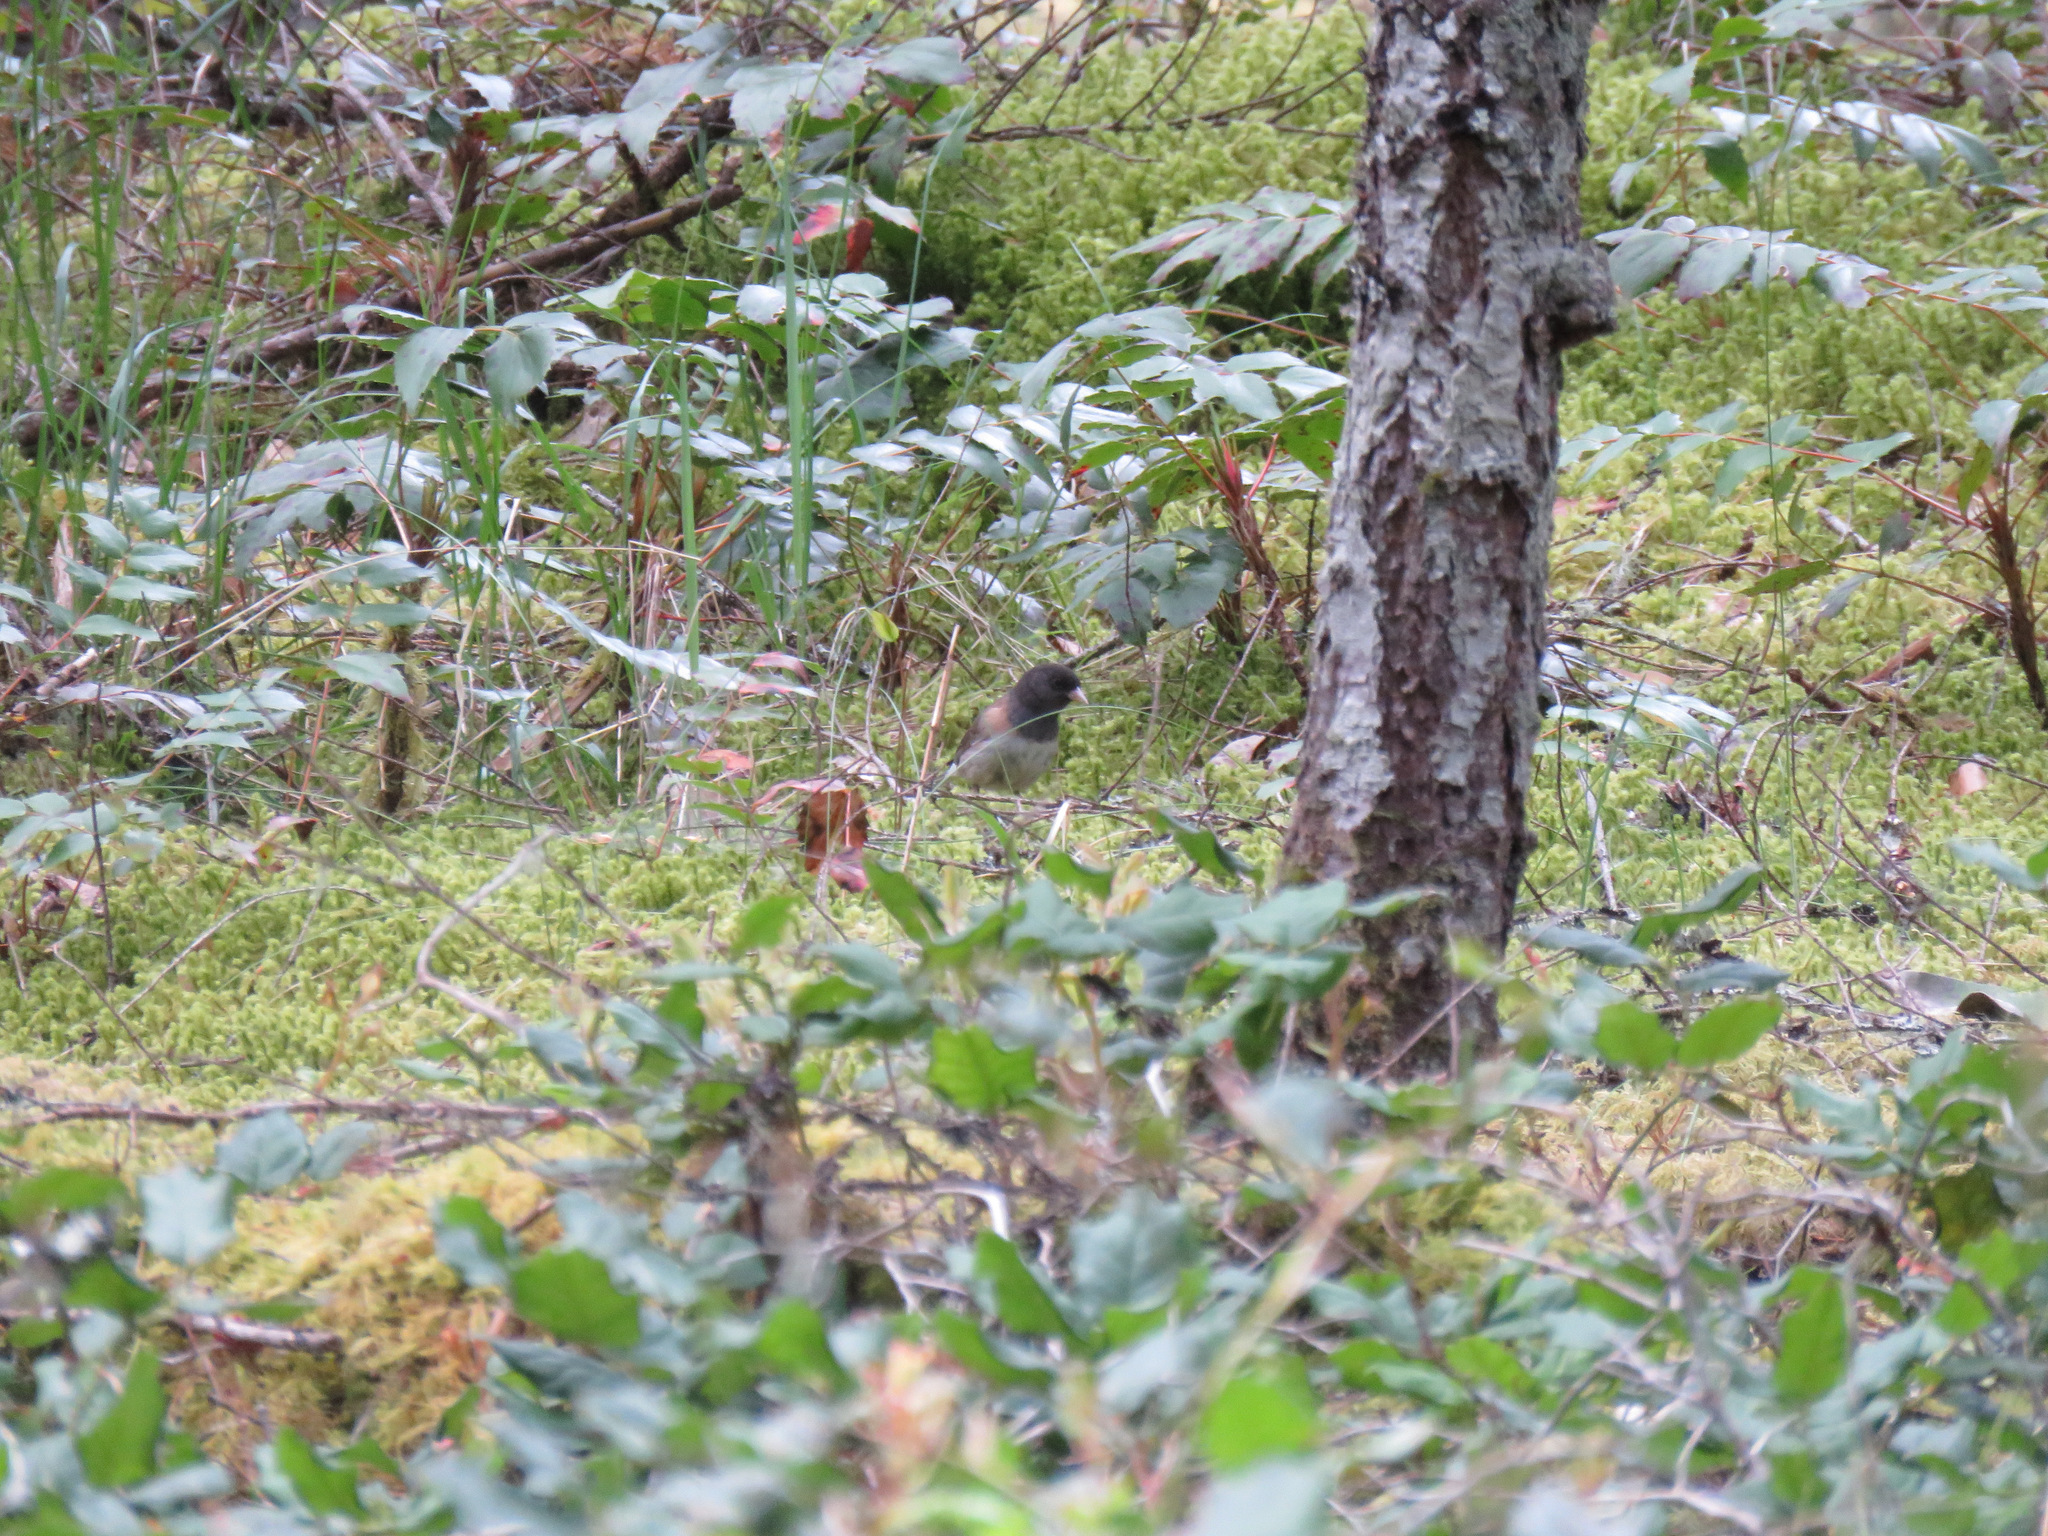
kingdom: Animalia
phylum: Chordata
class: Aves
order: Passeriformes
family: Passerellidae
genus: Junco
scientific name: Junco hyemalis
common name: Dark-eyed junco
